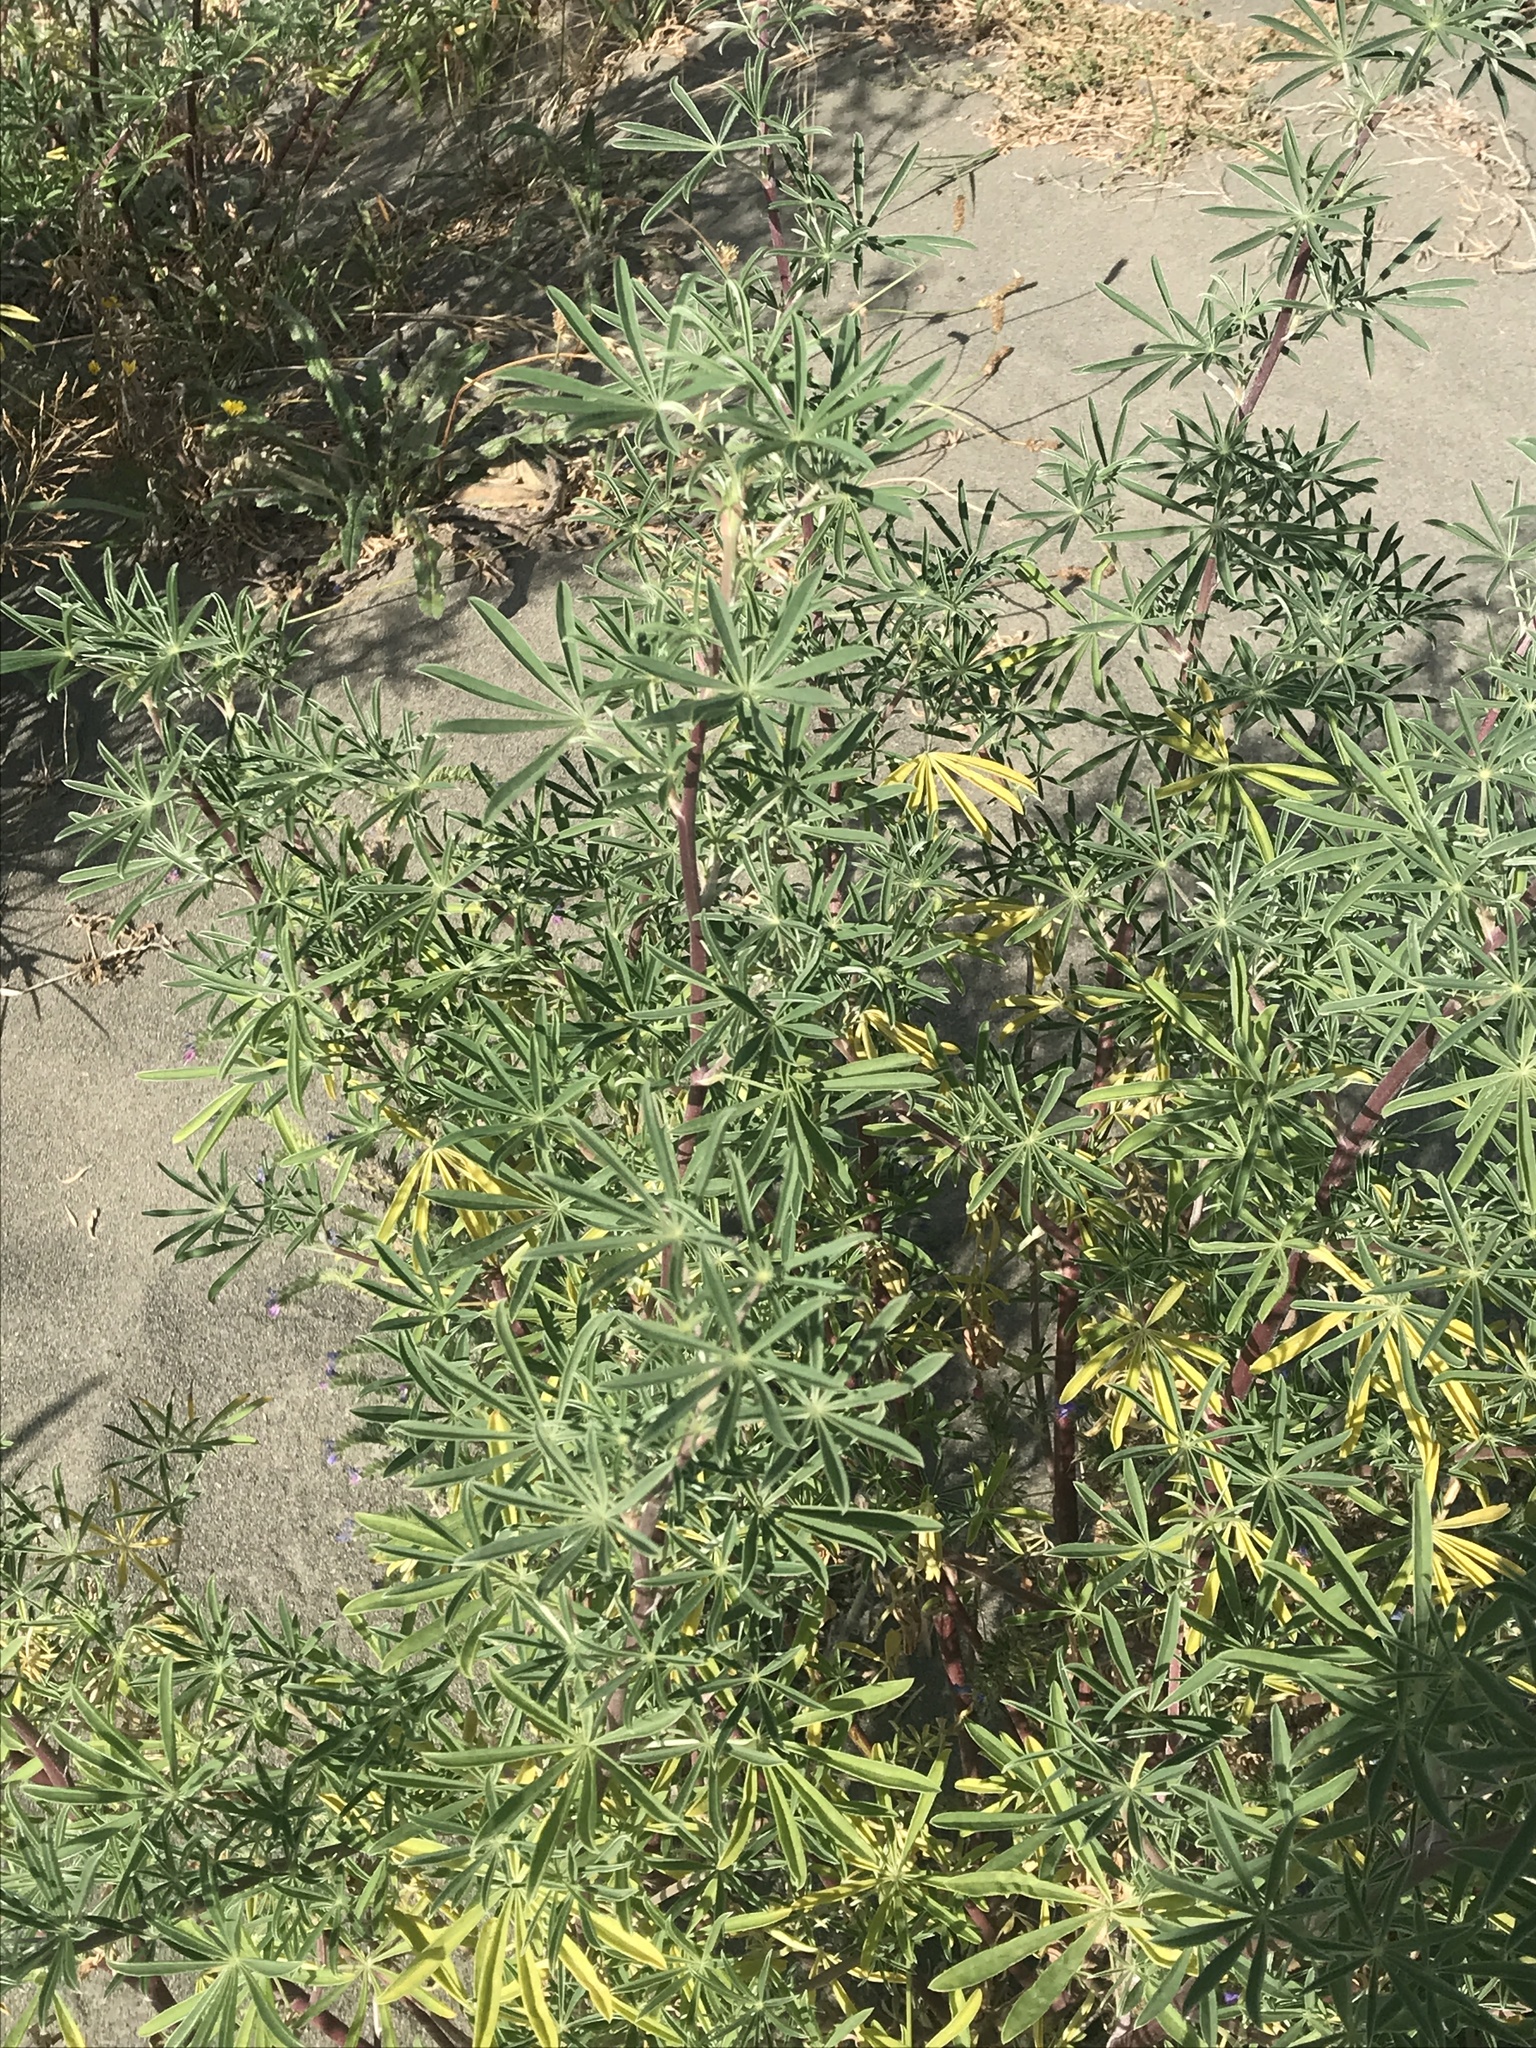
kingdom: Plantae
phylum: Tracheophyta
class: Magnoliopsida
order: Fabales
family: Fabaceae
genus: Lupinus
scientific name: Lupinus arboreus
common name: Yellow bush lupine
